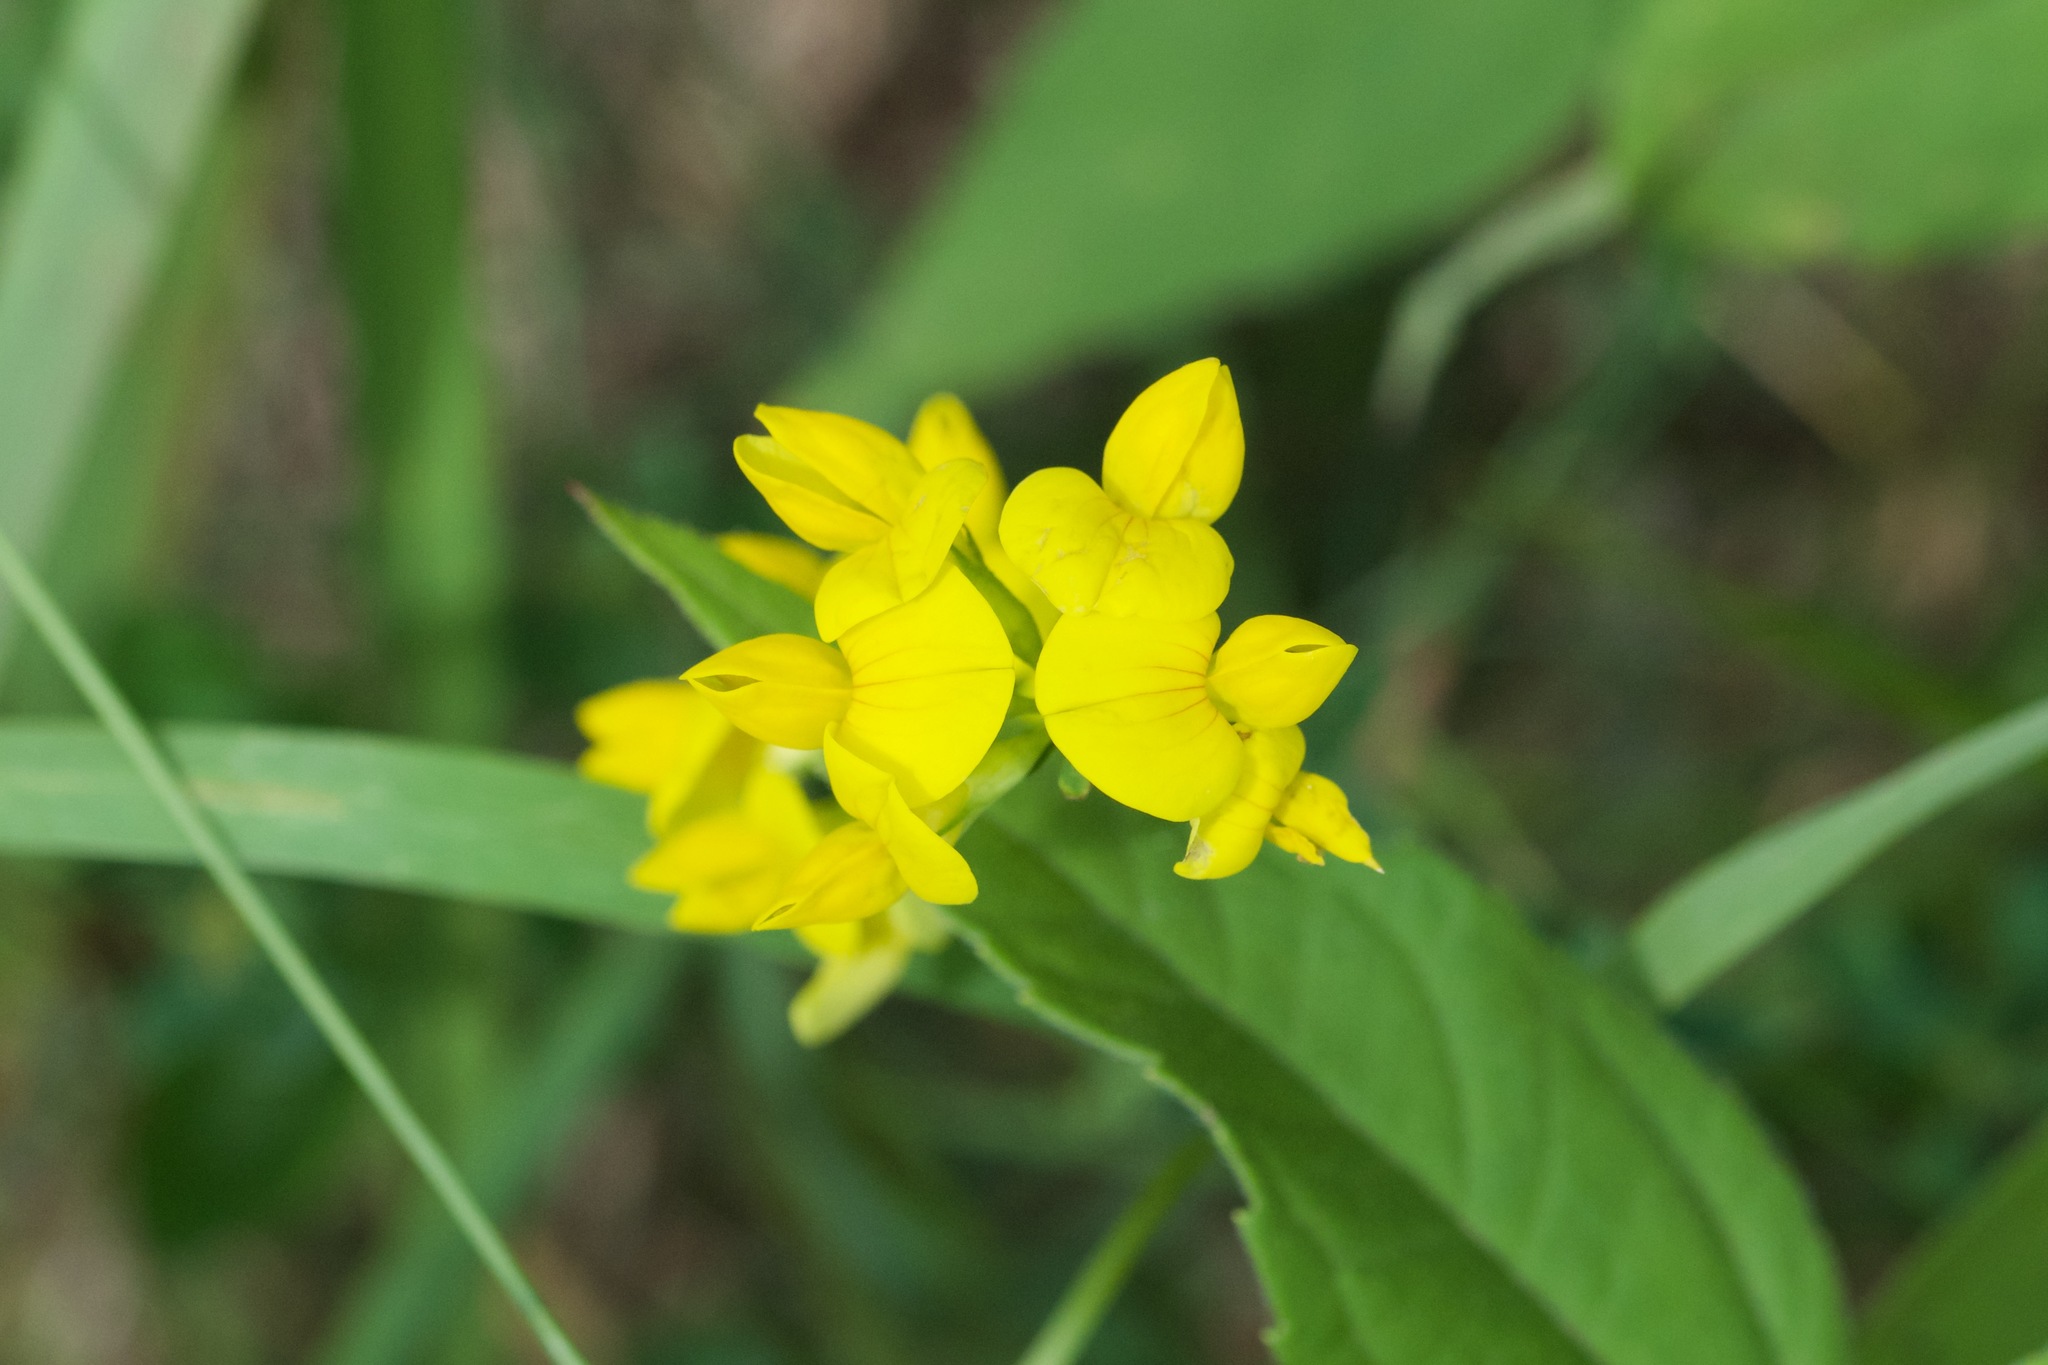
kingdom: Plantae
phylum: Tracheophyta
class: Magnoliopsida
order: Fabales
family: Fabaceae
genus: Lotus
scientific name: Lotus corniculatus
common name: Common bird's-foot-trefoil
